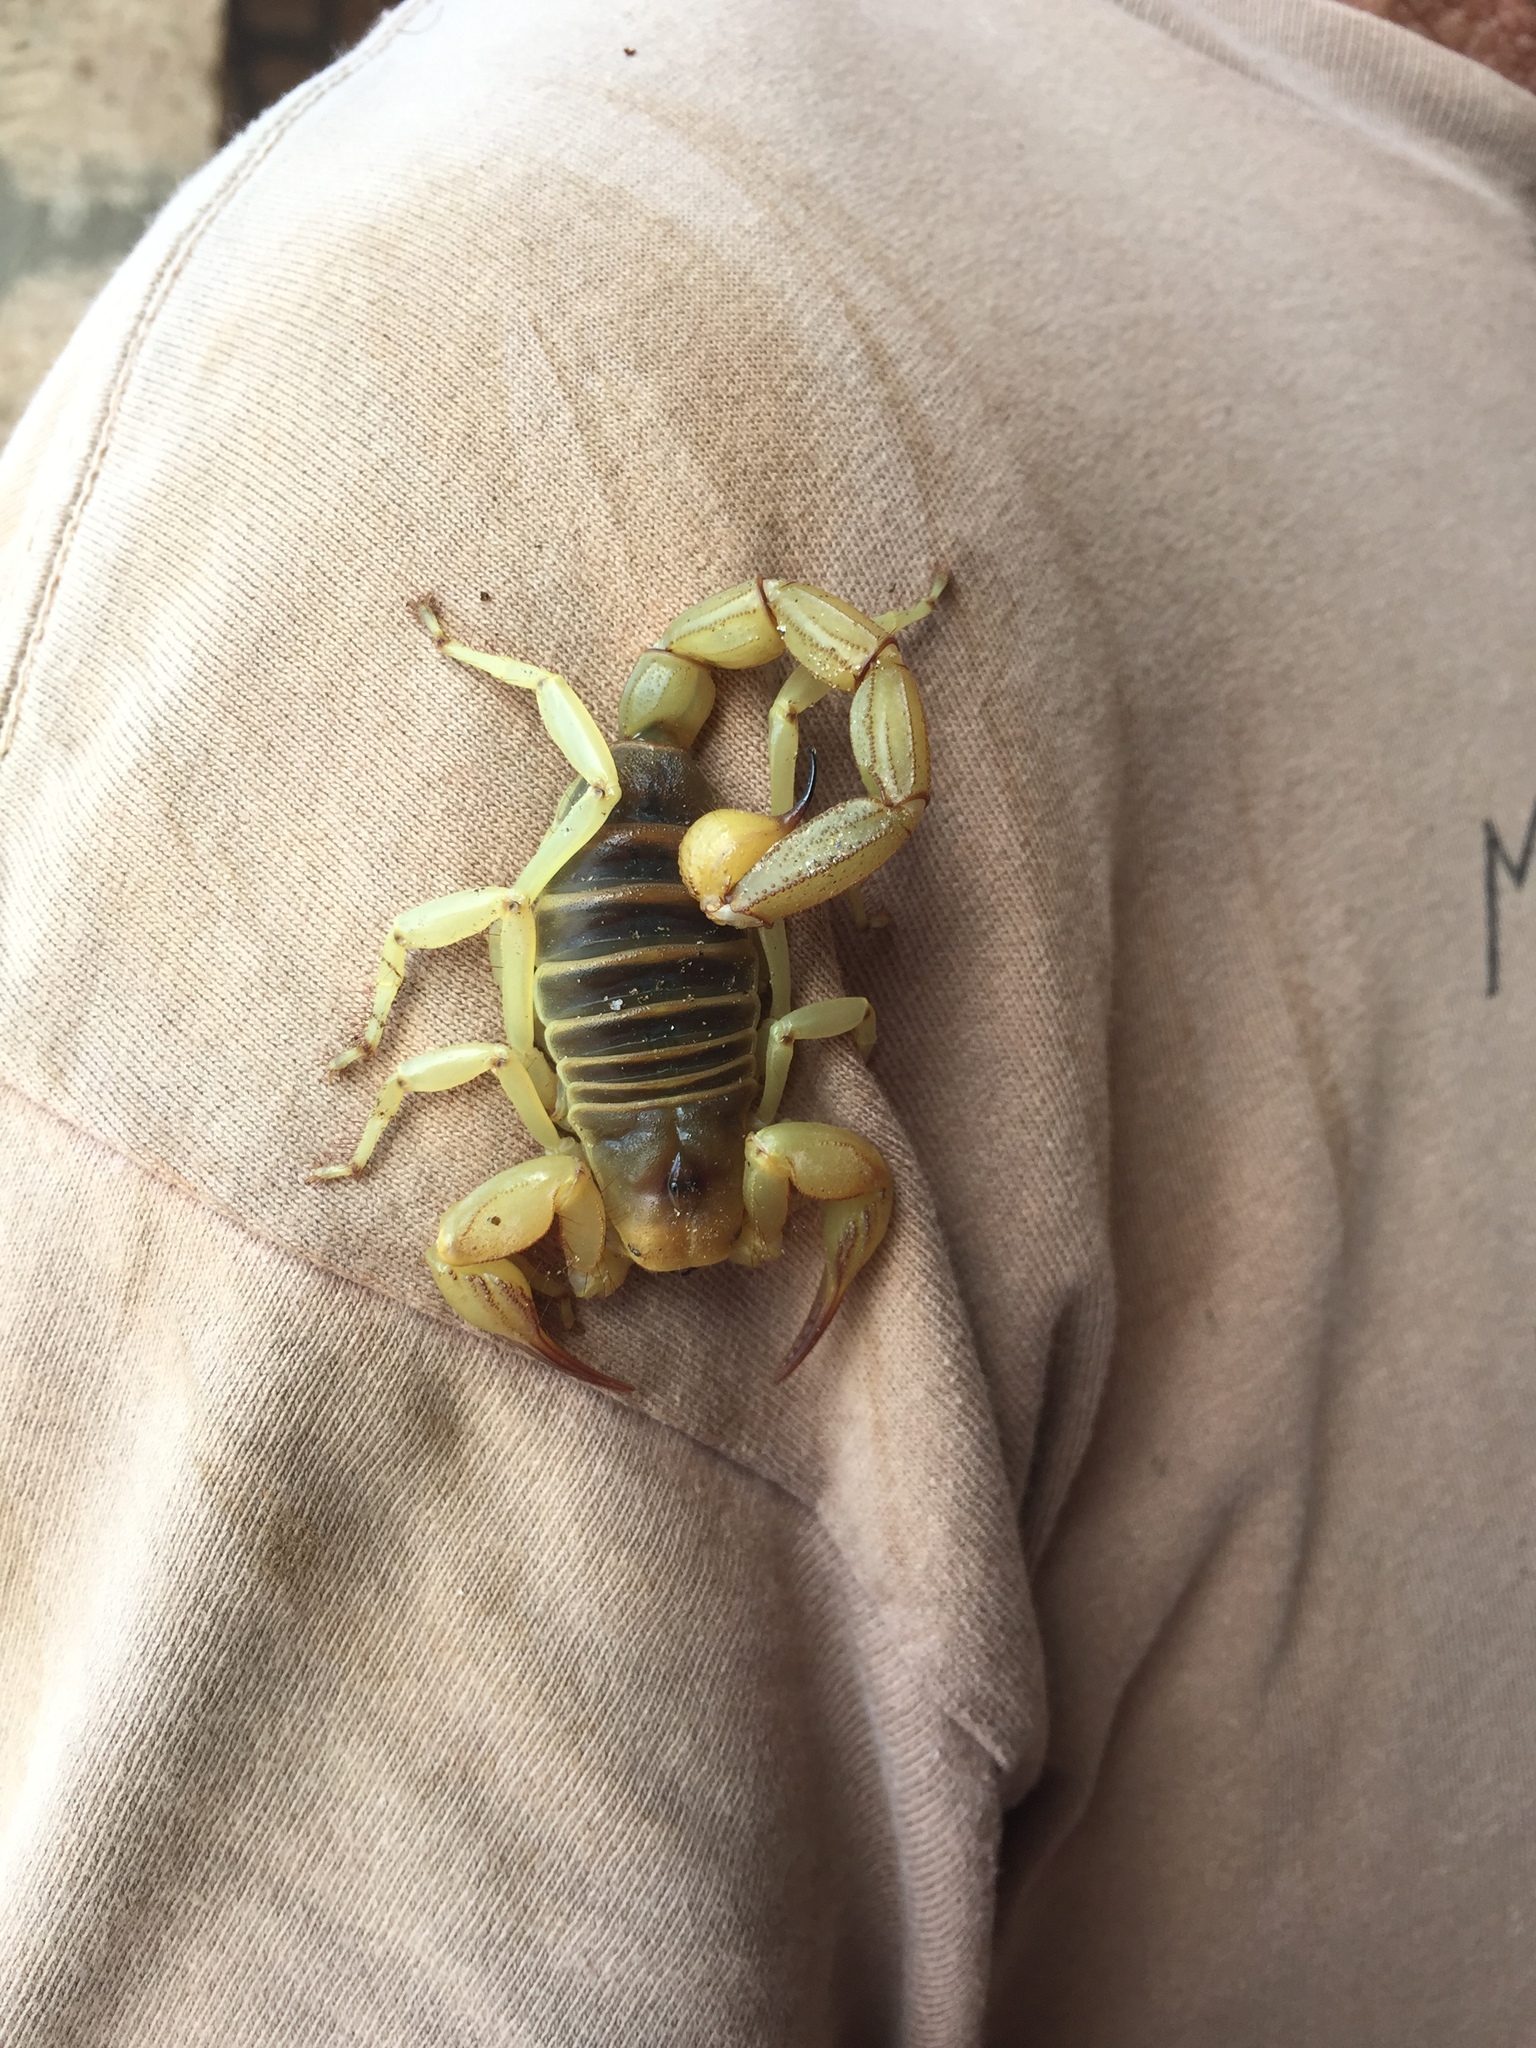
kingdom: Animalia
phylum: Arthropoda
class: Arachnida
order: Scorpiones
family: Hadruridae
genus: Hadrurus
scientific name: Hadrurus concolorous
